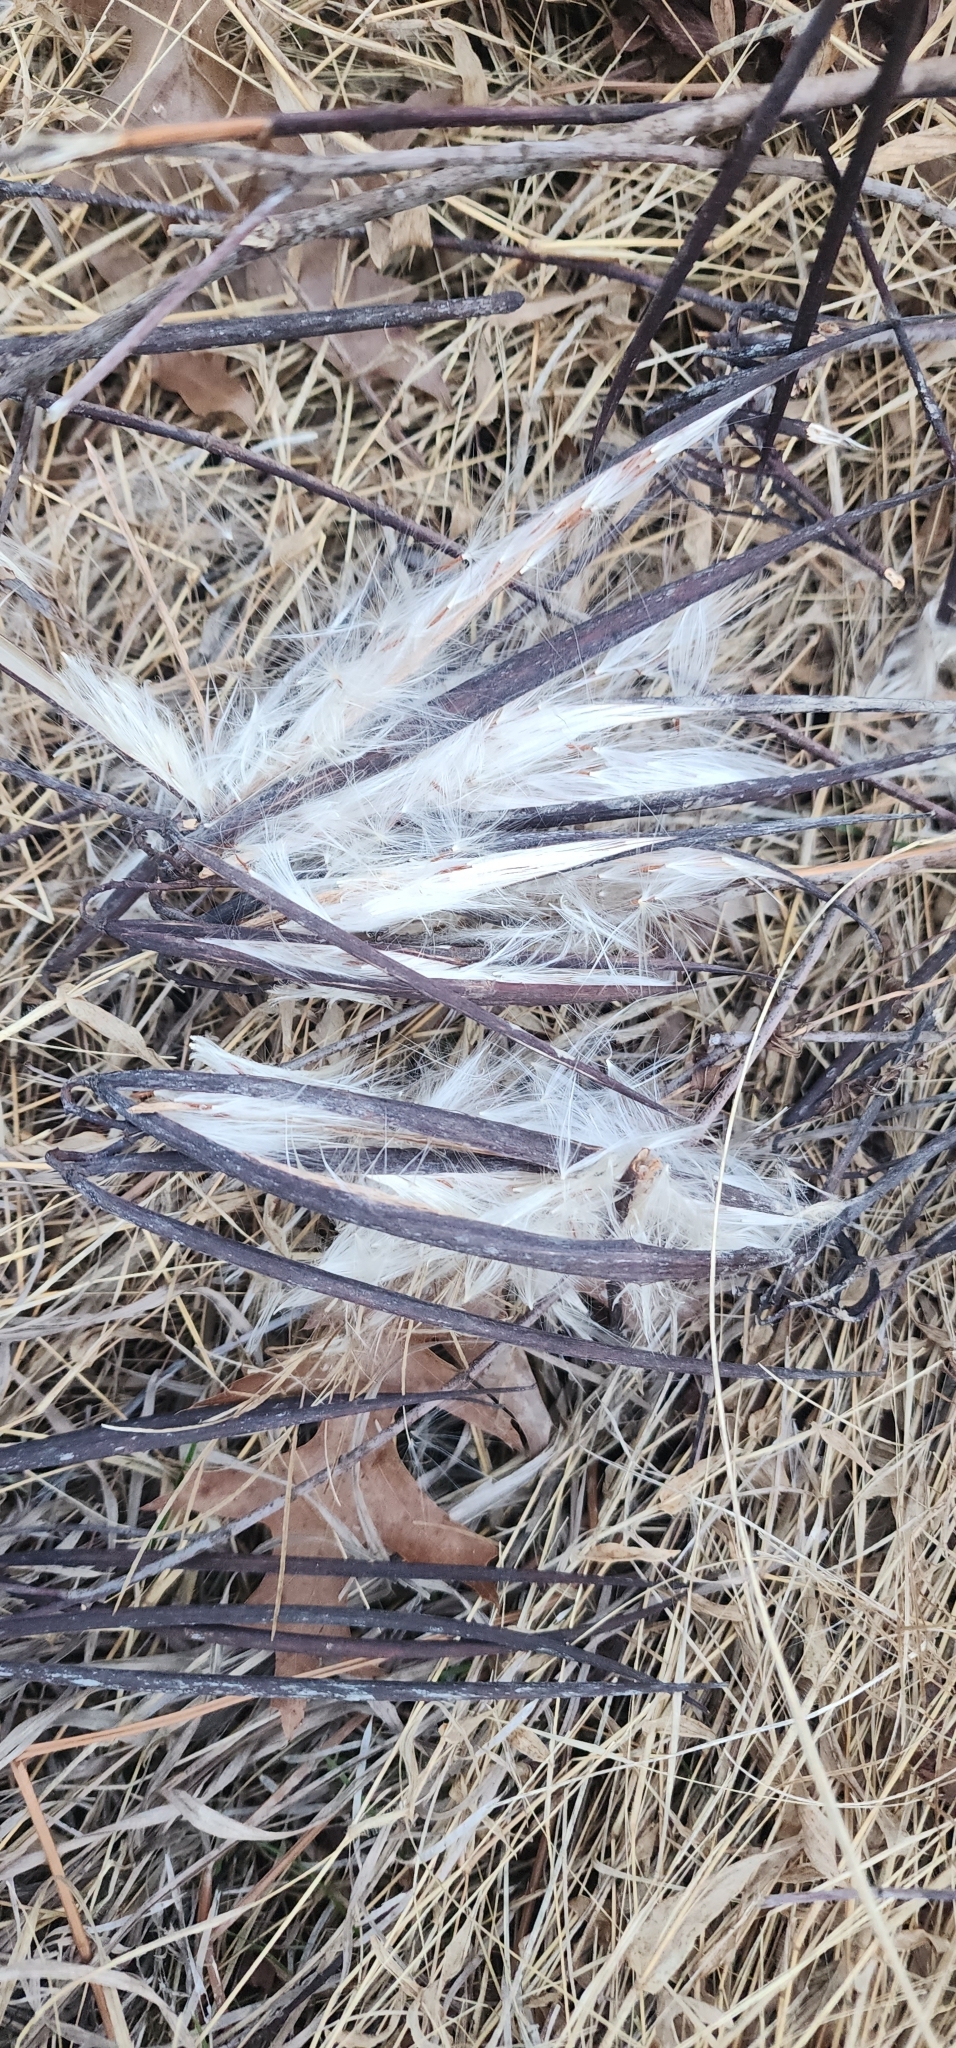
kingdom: Plantae
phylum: Tracheophyta
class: Magnoliopsida
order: Gentianales
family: Apocynaceae
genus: Apocynum
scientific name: Apocynum cannabinum
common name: Hemp dogbane
